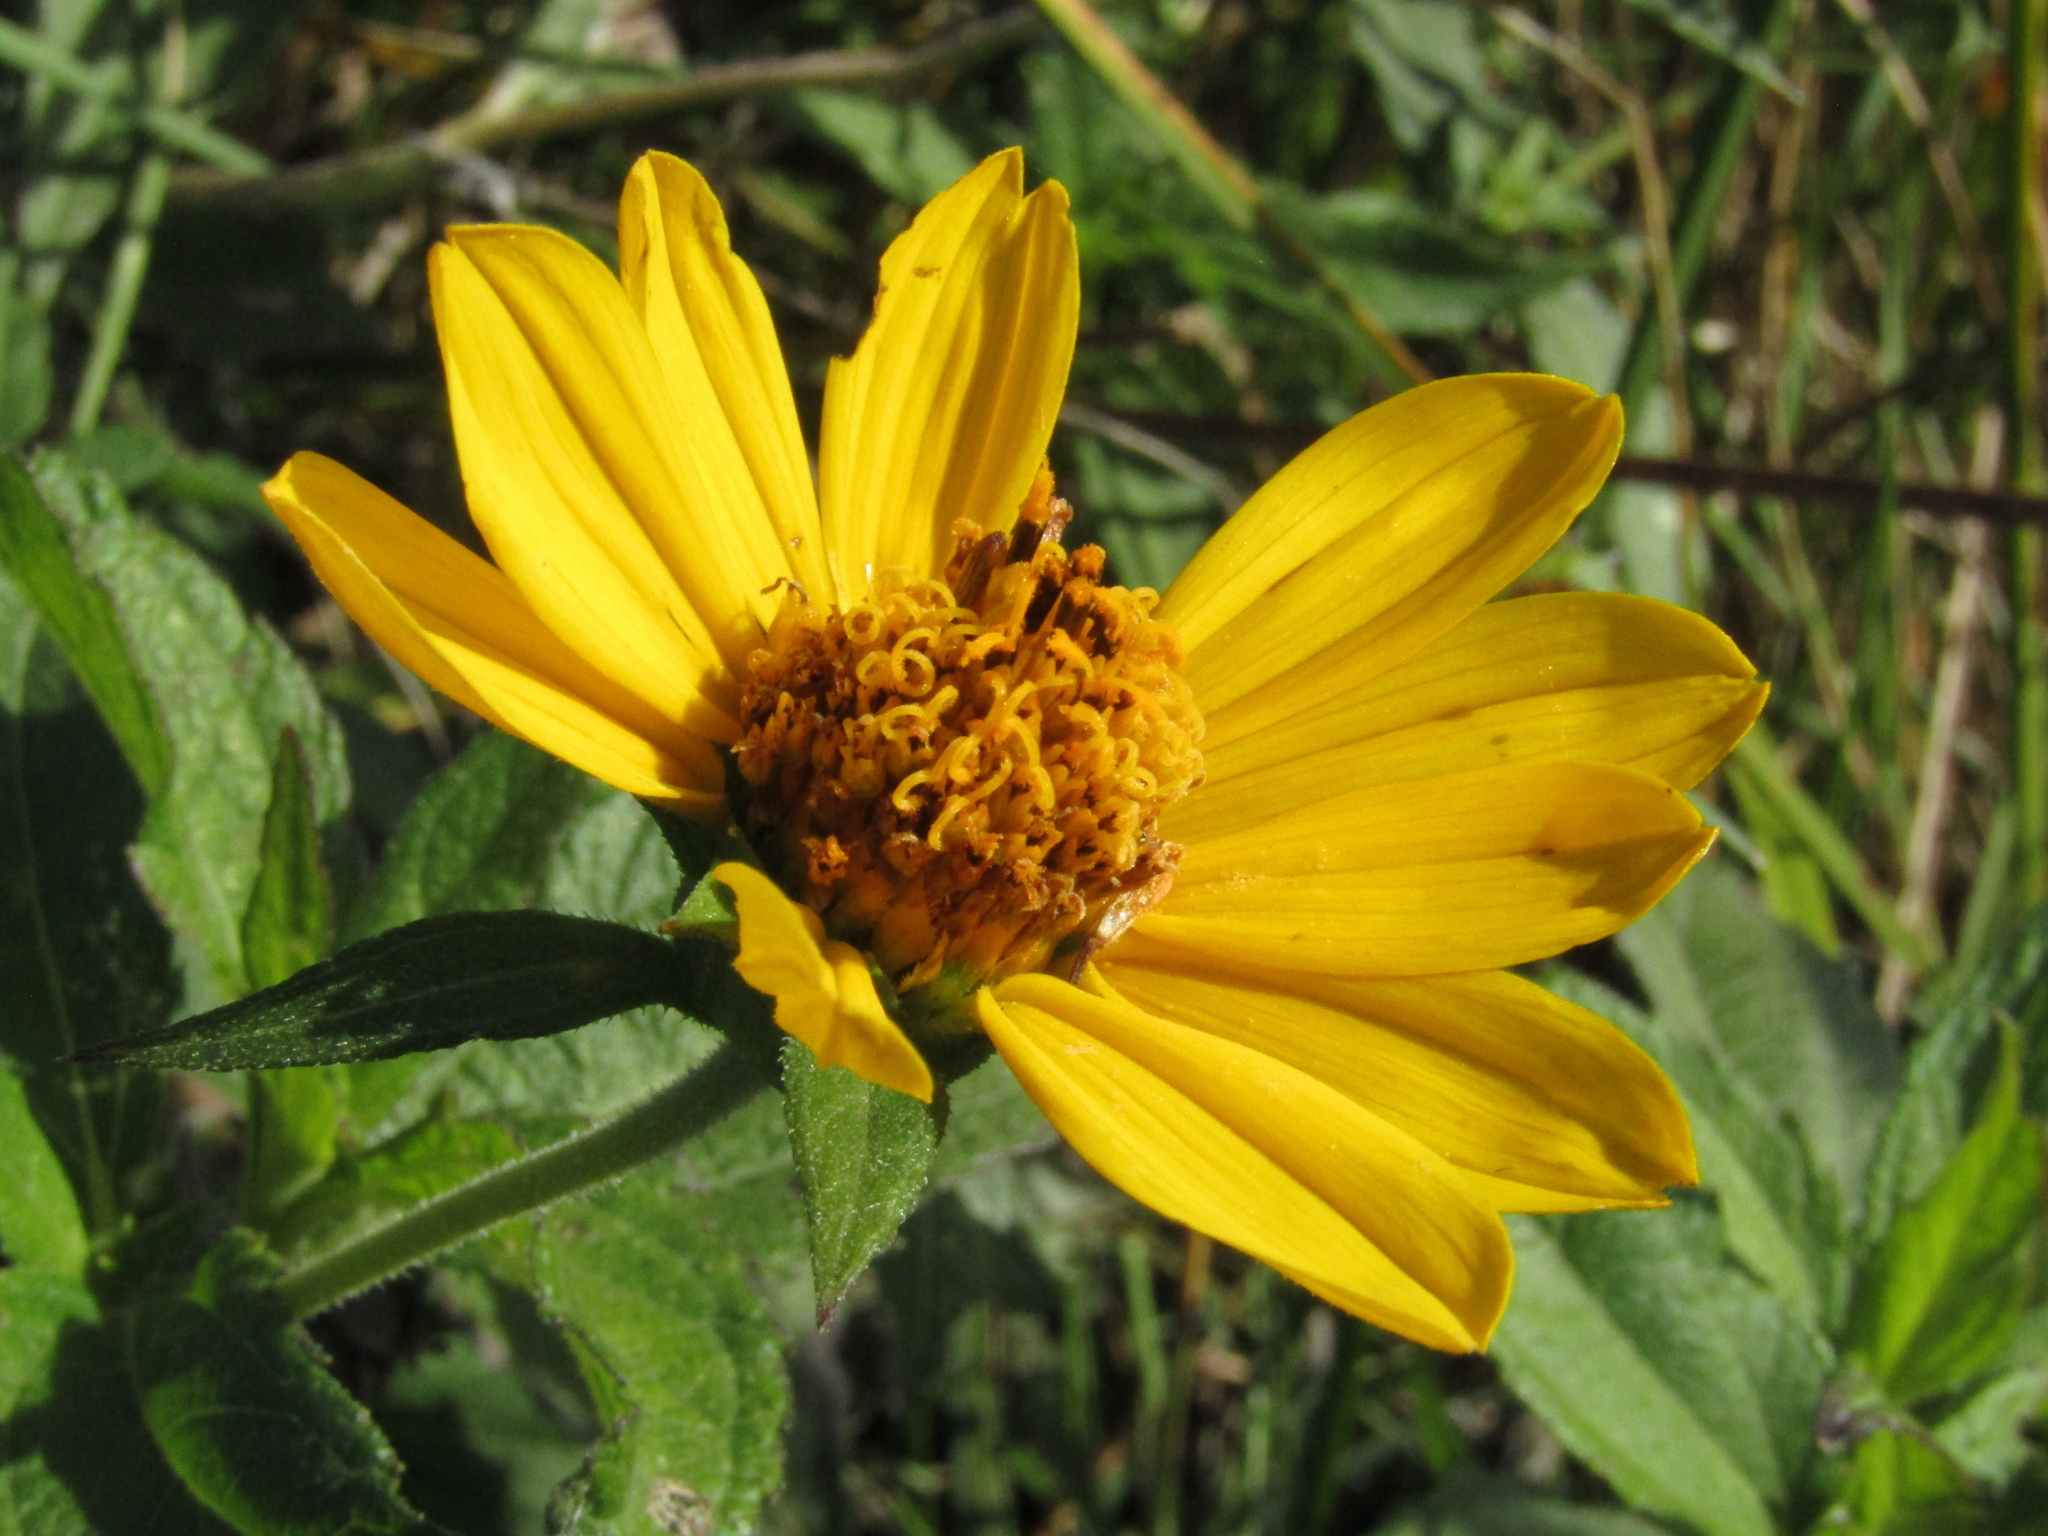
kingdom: Plantae
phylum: Tracheophyta
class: Magnoliopsida
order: Asterales
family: Asteraceae
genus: Wedelia
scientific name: Wedelia silphioides
